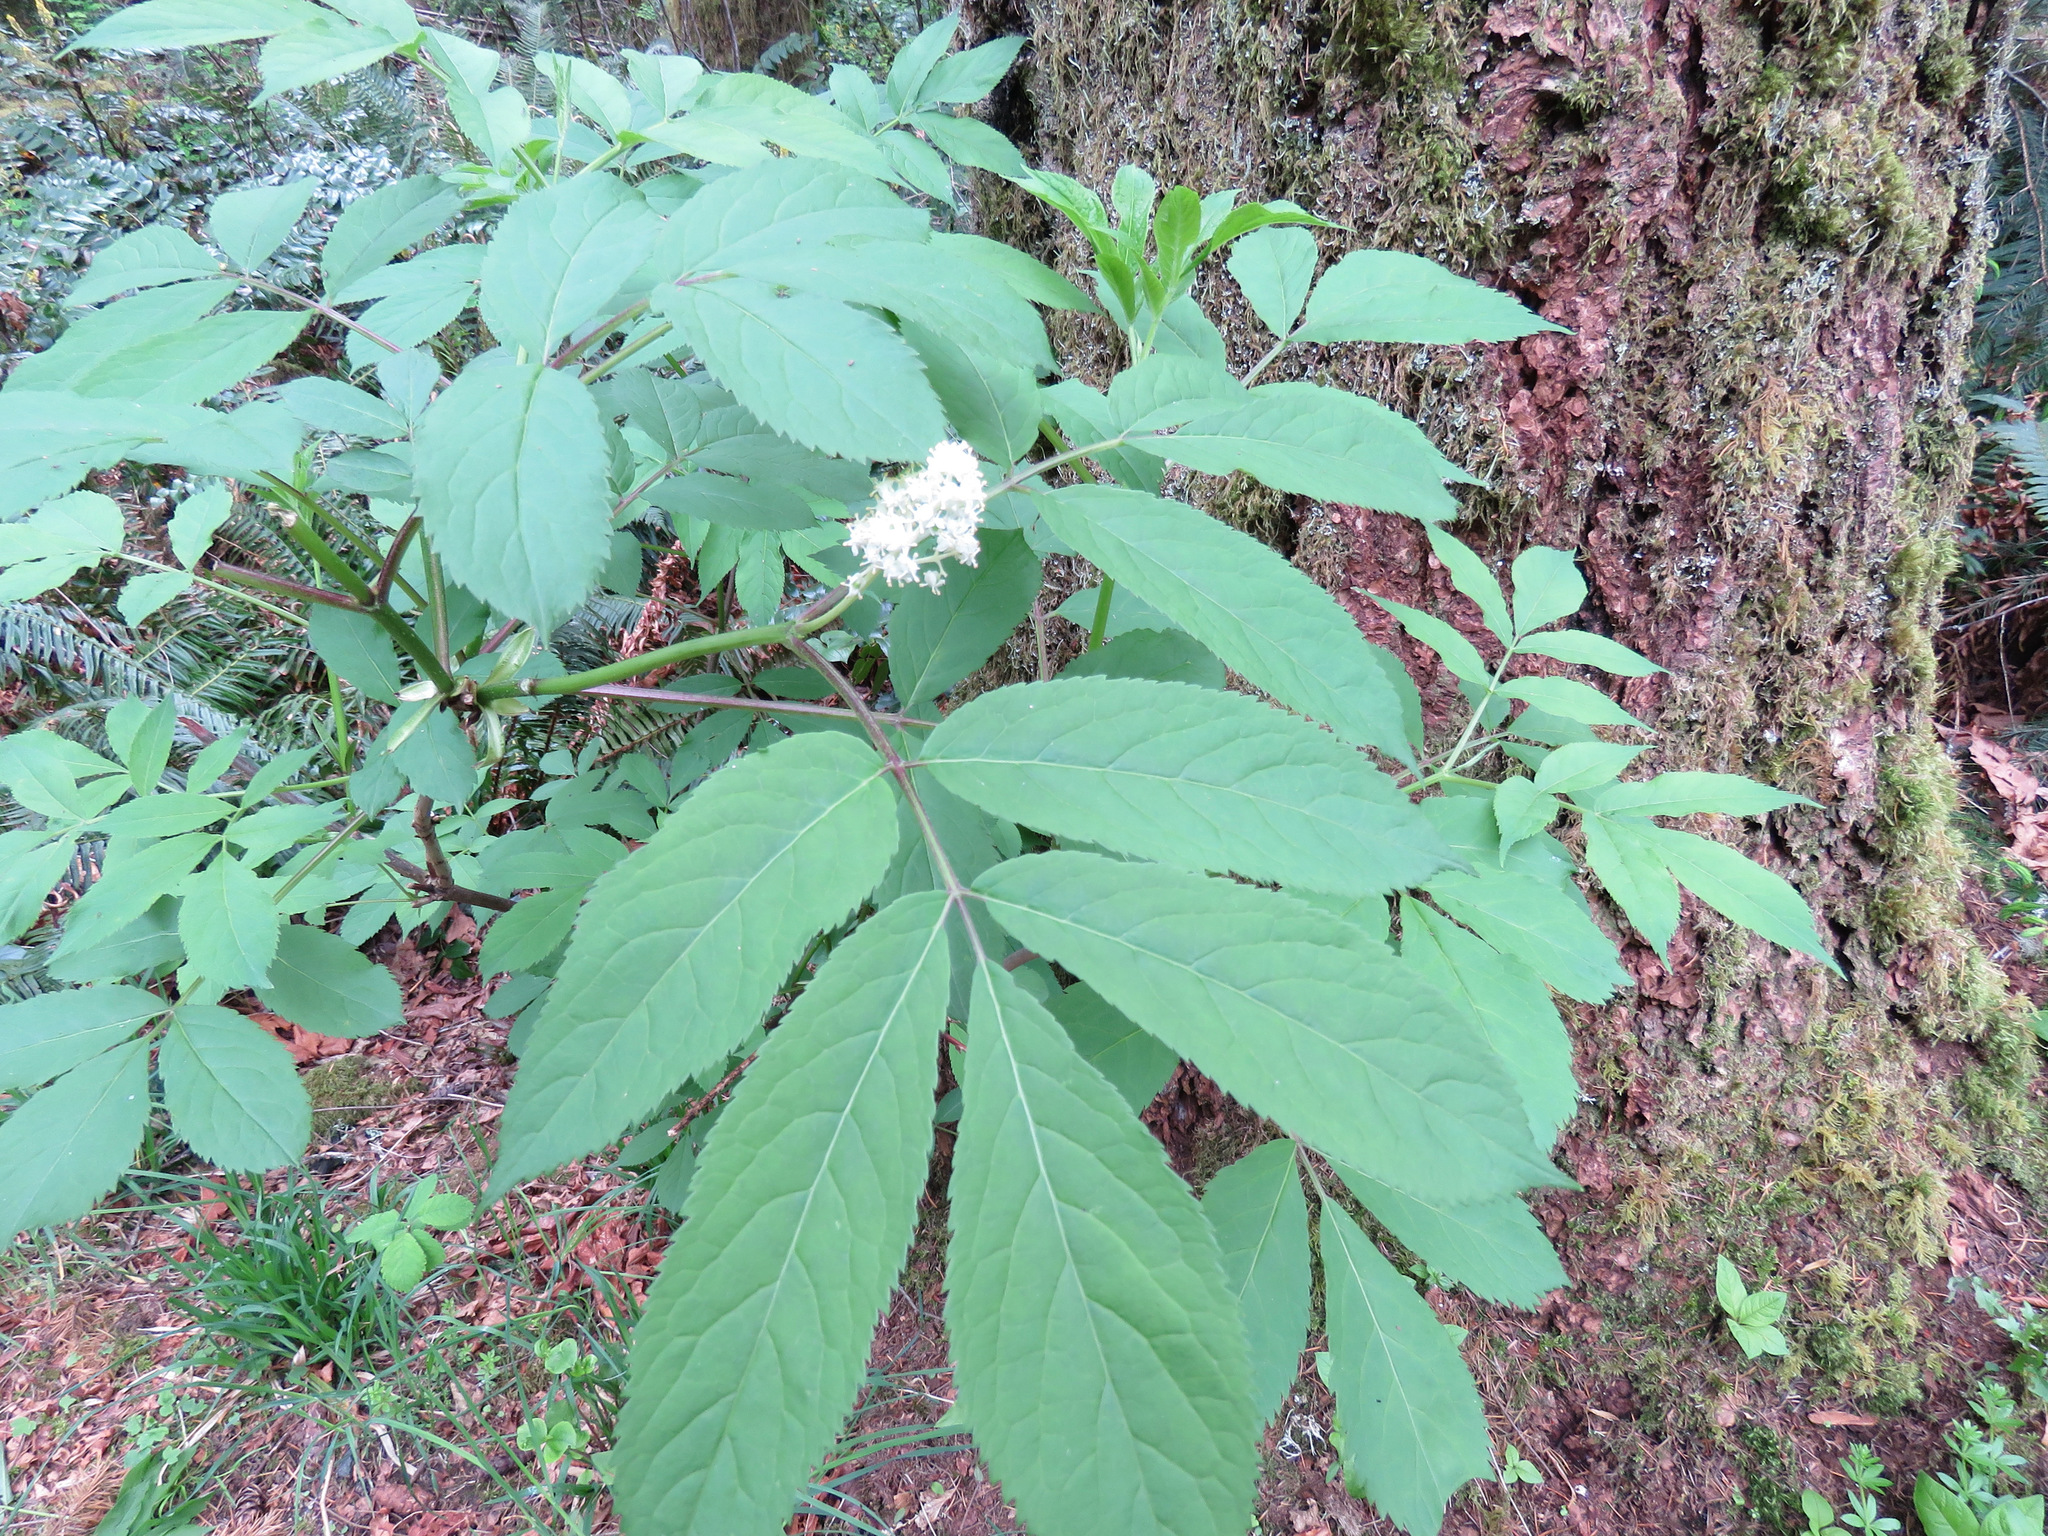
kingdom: Plantae
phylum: Tracheophyta
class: Magnoliopsida
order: Dipsacales
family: Viburnaceae
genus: Sambucus
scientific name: Sambucus racemosa
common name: Red-berried elder
